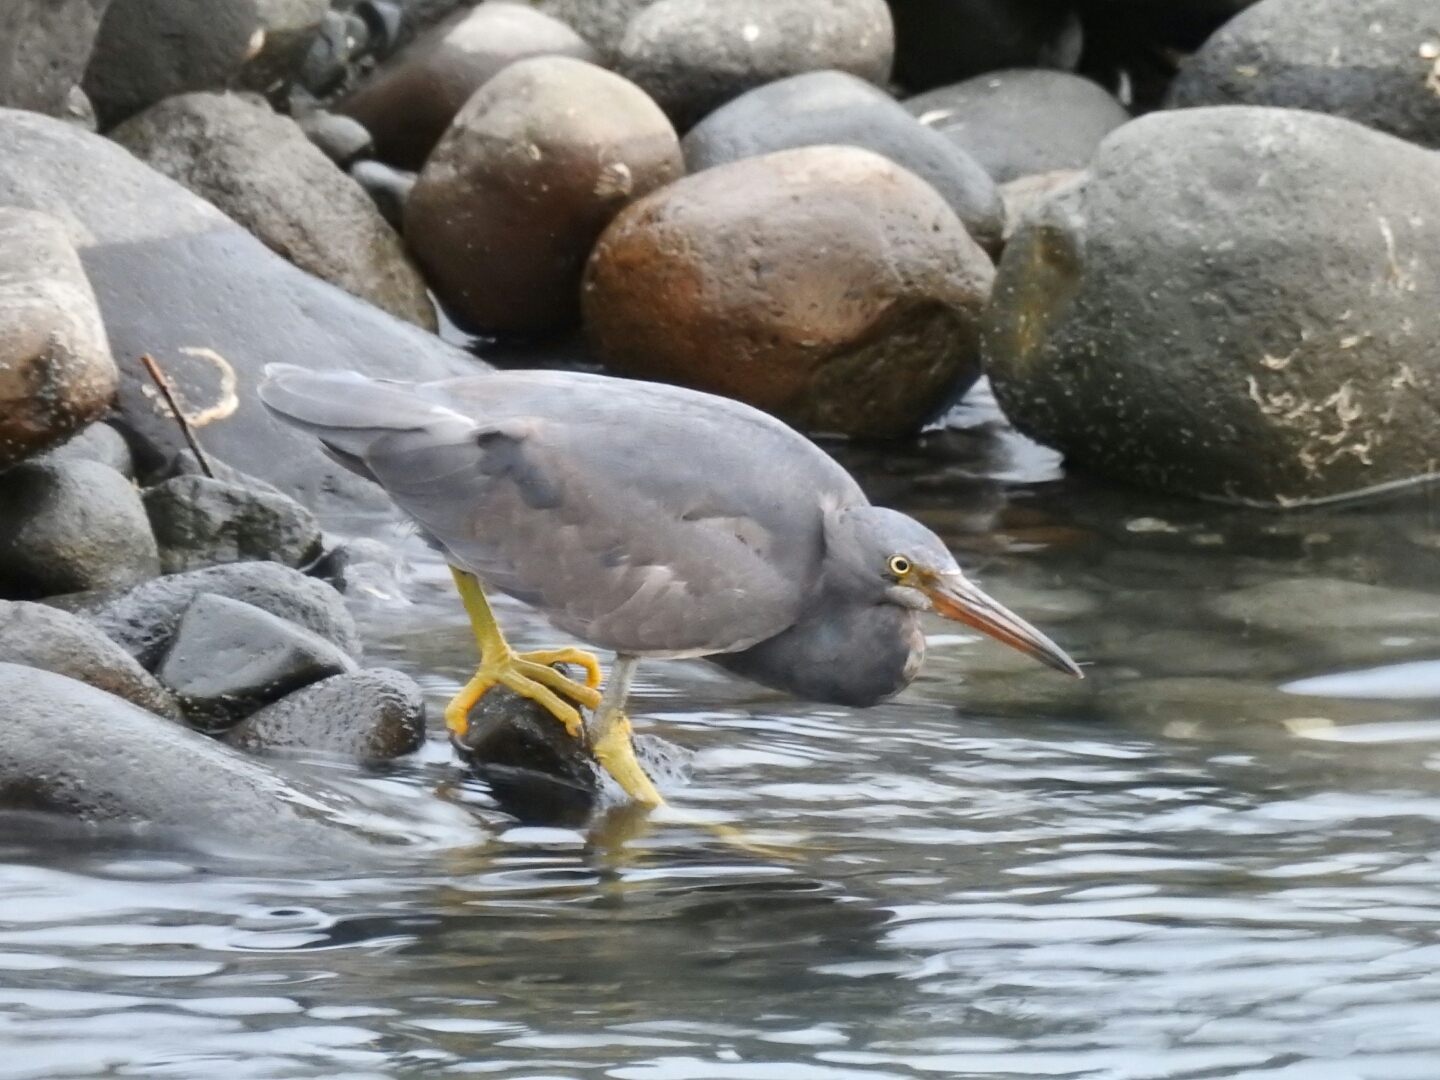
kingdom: Animalia
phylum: Chordata
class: Aves
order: Pelecaniformes
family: Ardeidae
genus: Egretta
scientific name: Egretta sacra
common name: Pacific reef heron
